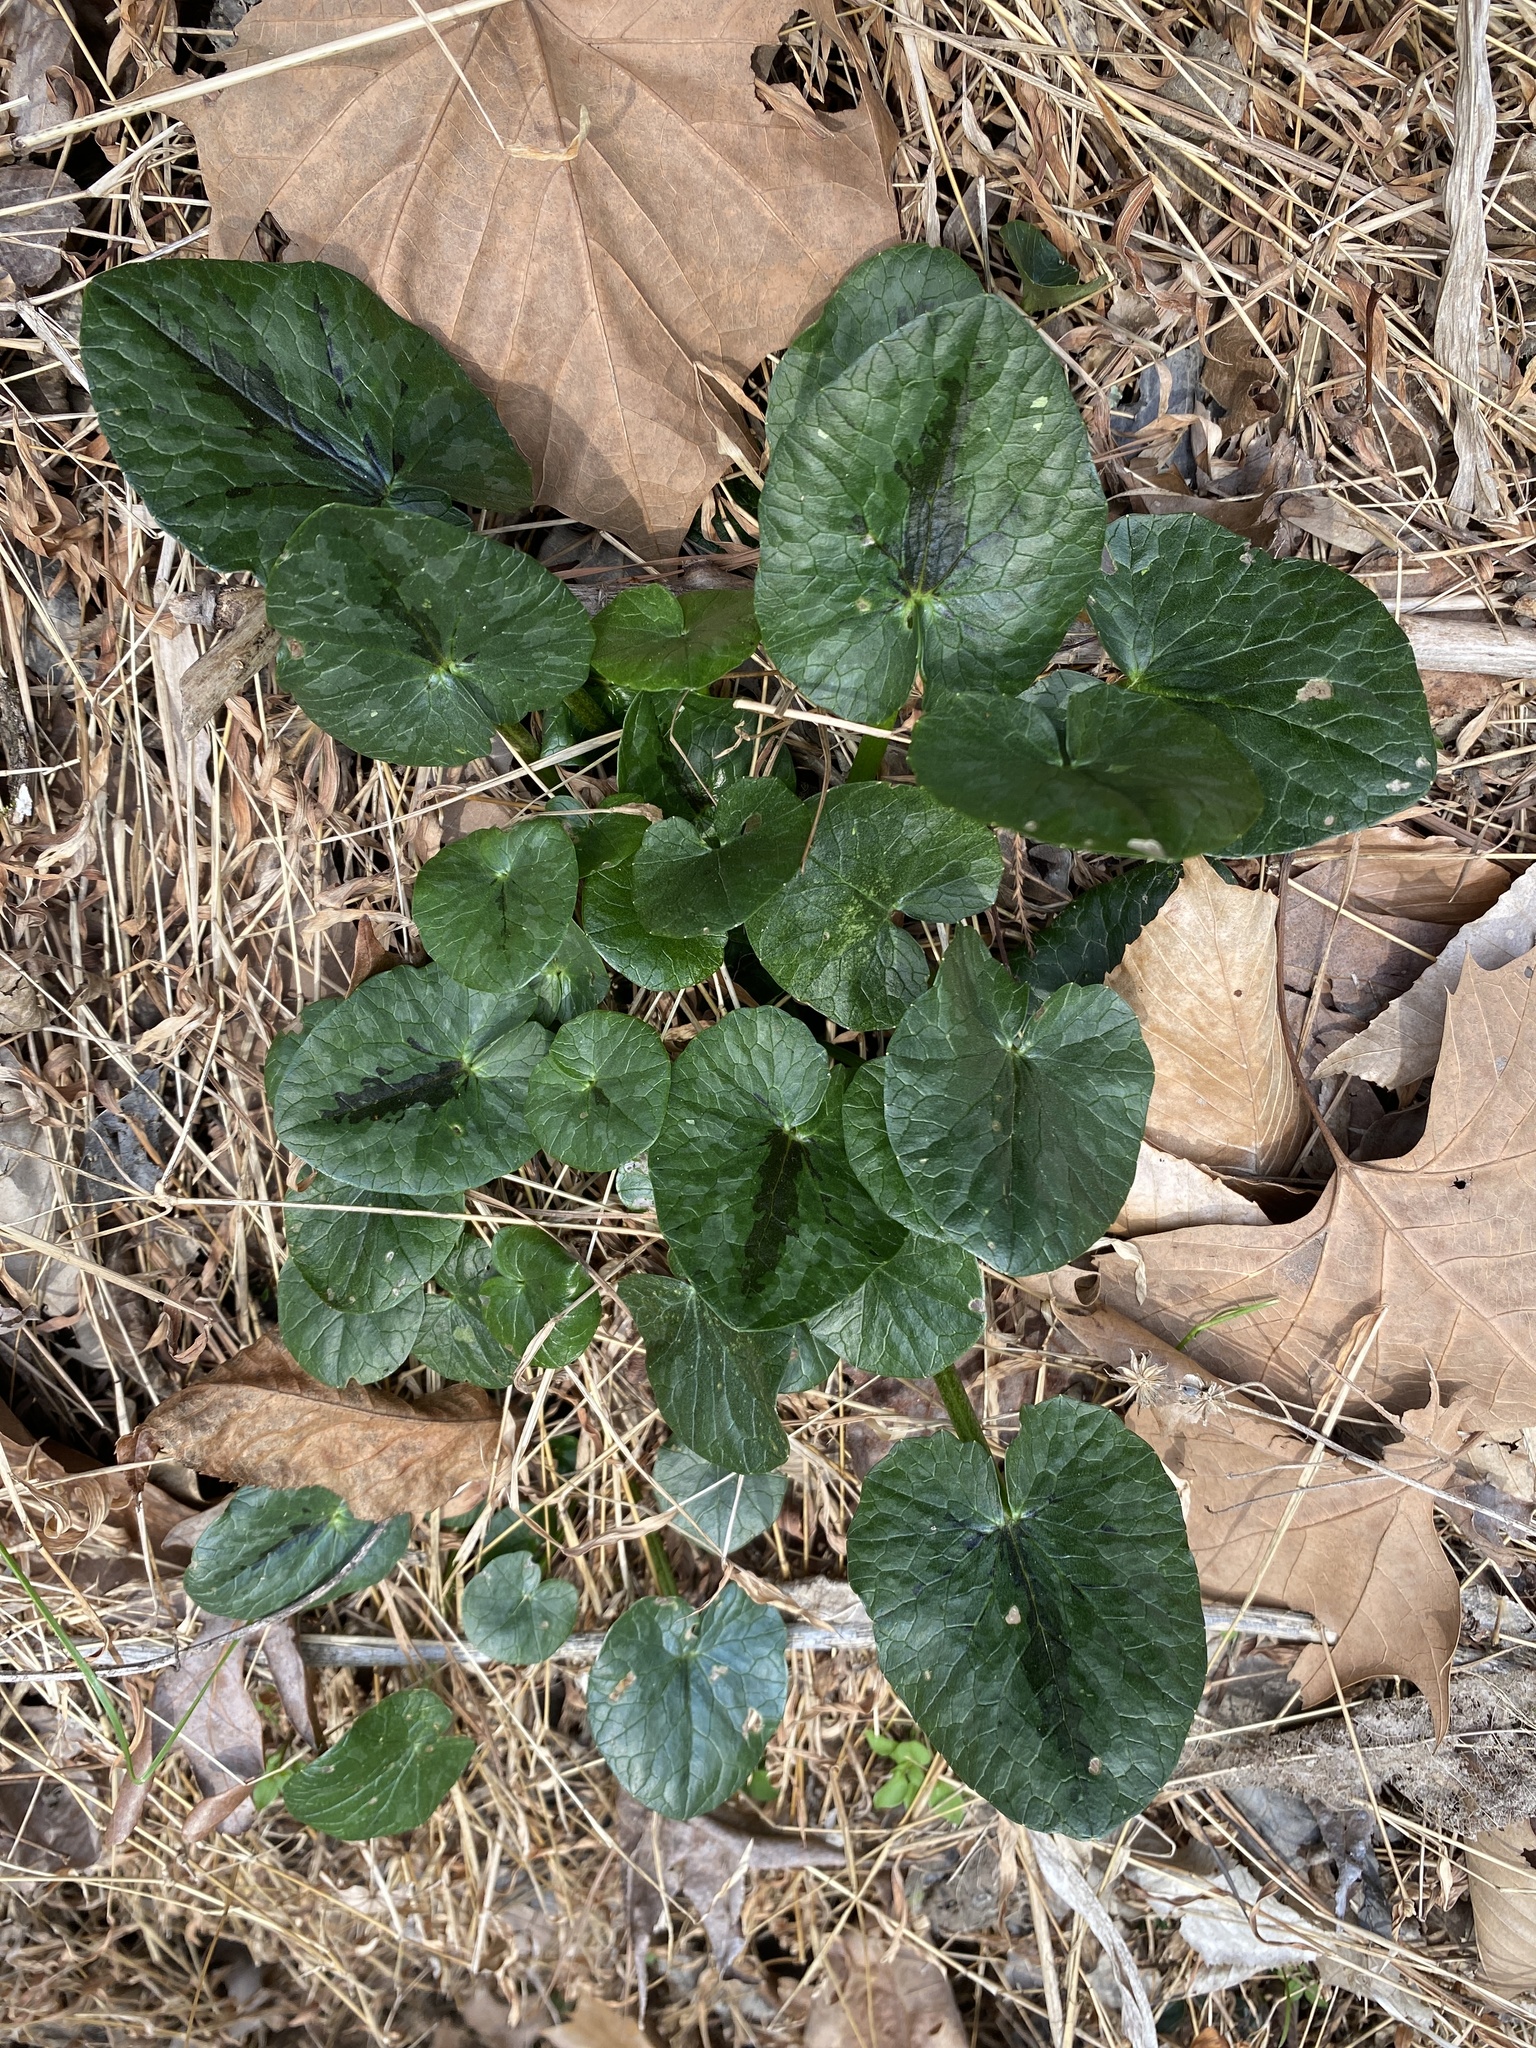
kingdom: Plantae
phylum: Tracheophyta
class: Magnoliopsida
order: Ranunculales
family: Ranunculaceae
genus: Ficaria
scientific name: Ficaria verna
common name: Lesser celandine
